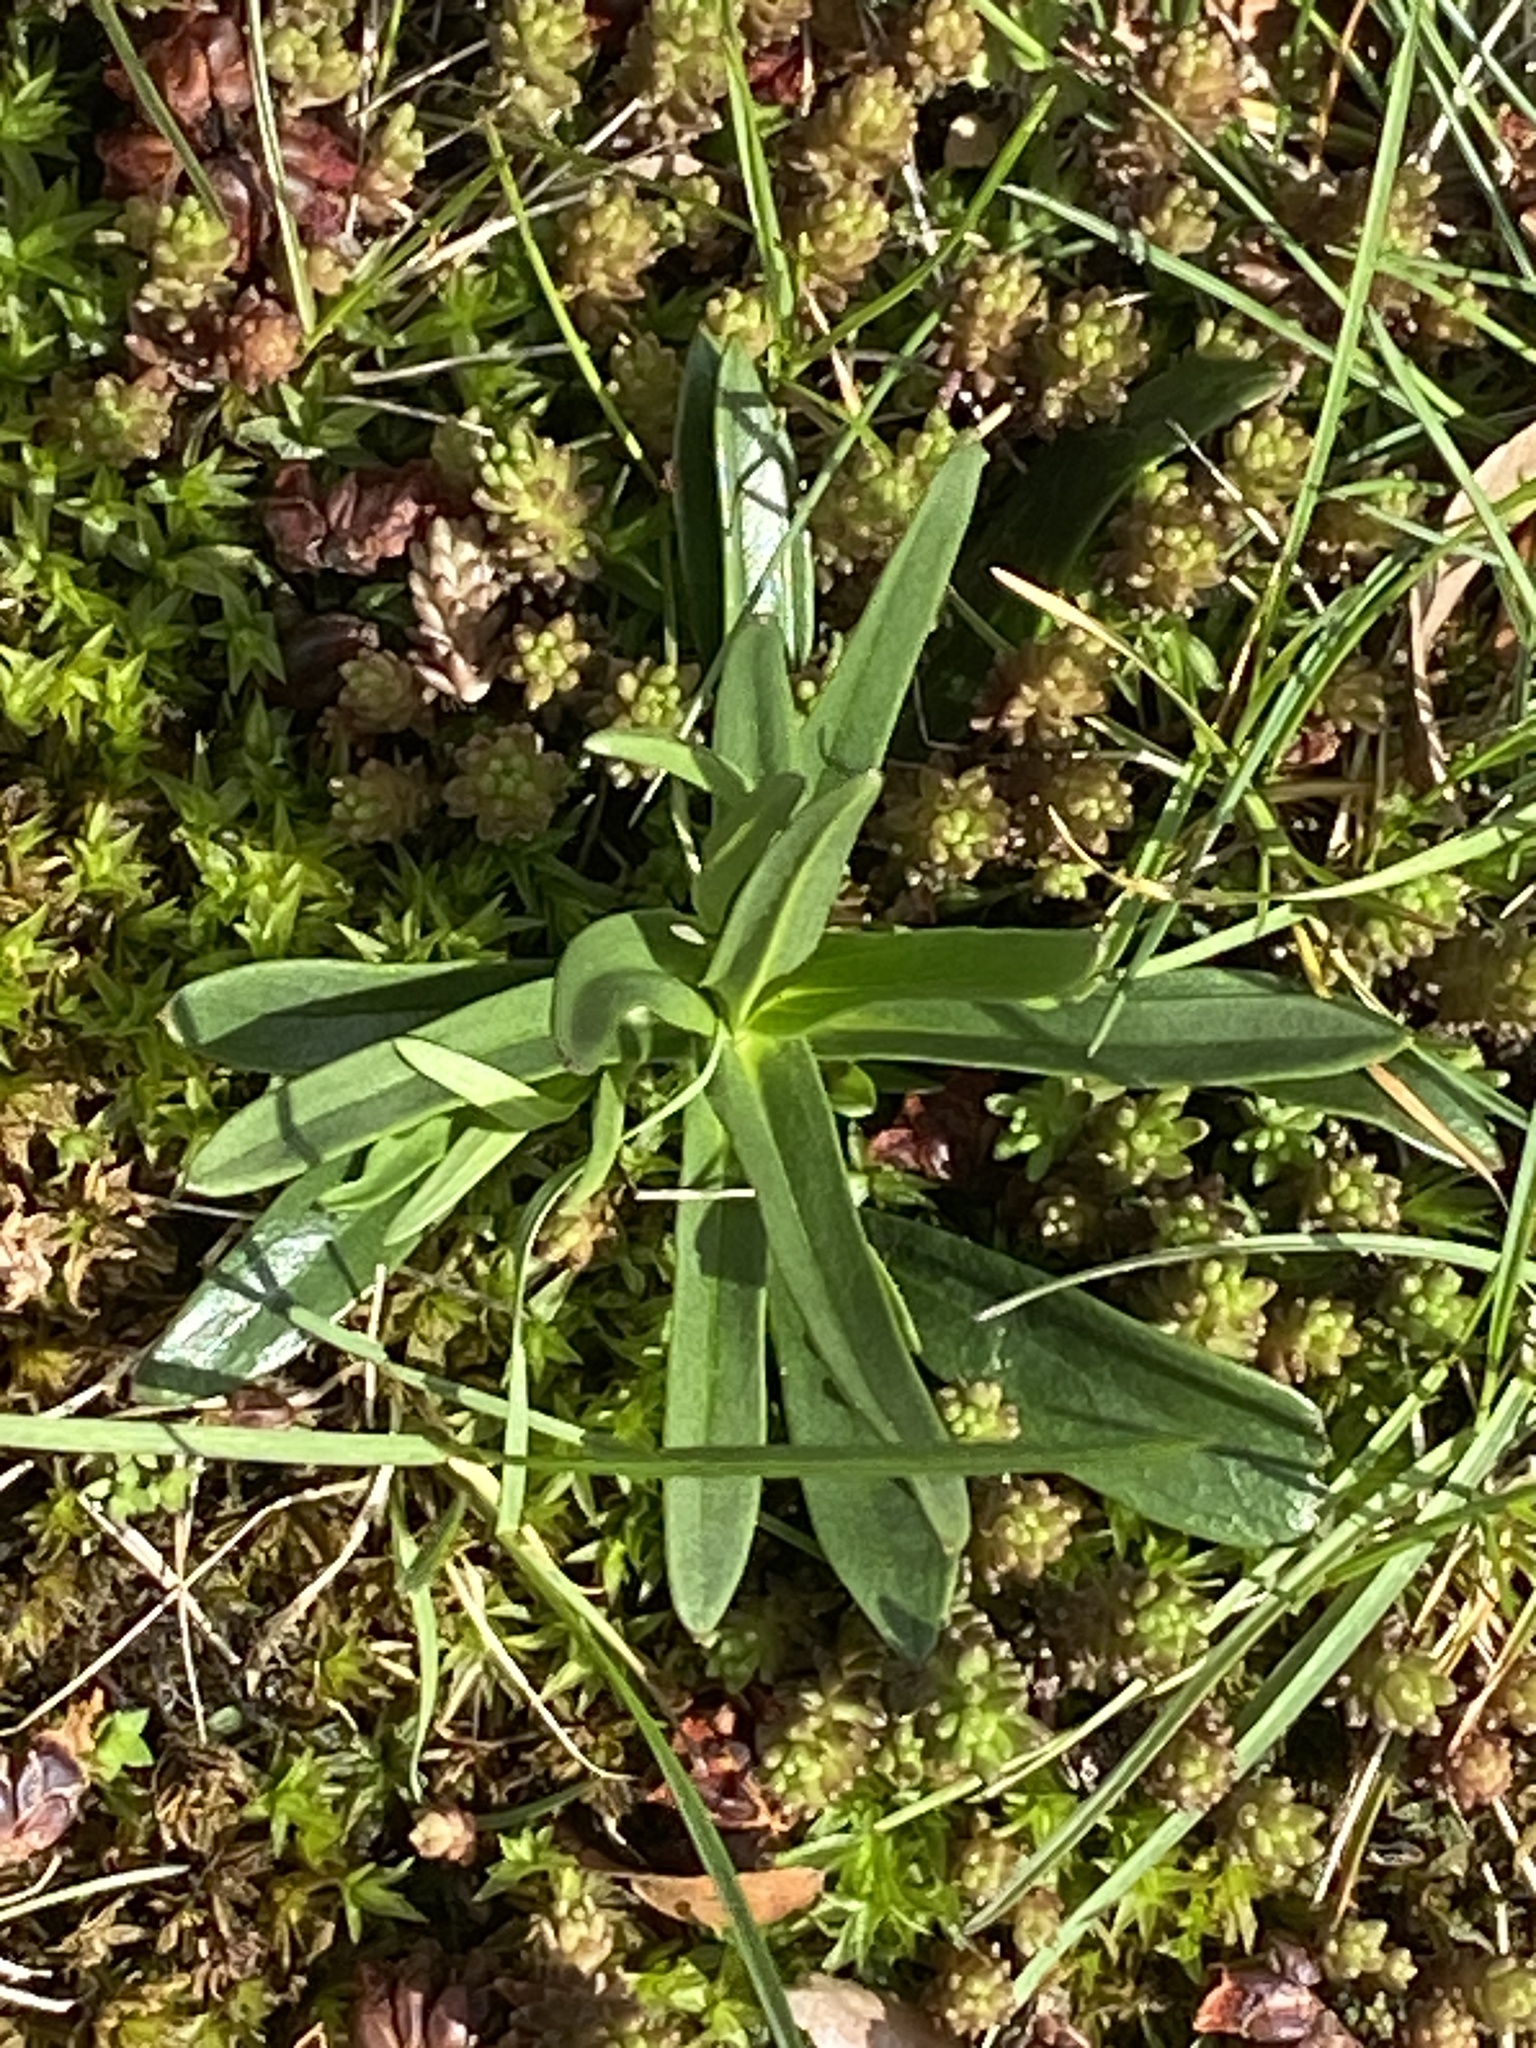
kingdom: Plantae
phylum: Tracheophyta
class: Magnoliopsida
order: Caryophyllales
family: Caryophyllaceae
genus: Dianthus
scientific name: Dianthus armeria
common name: Deptford pink
